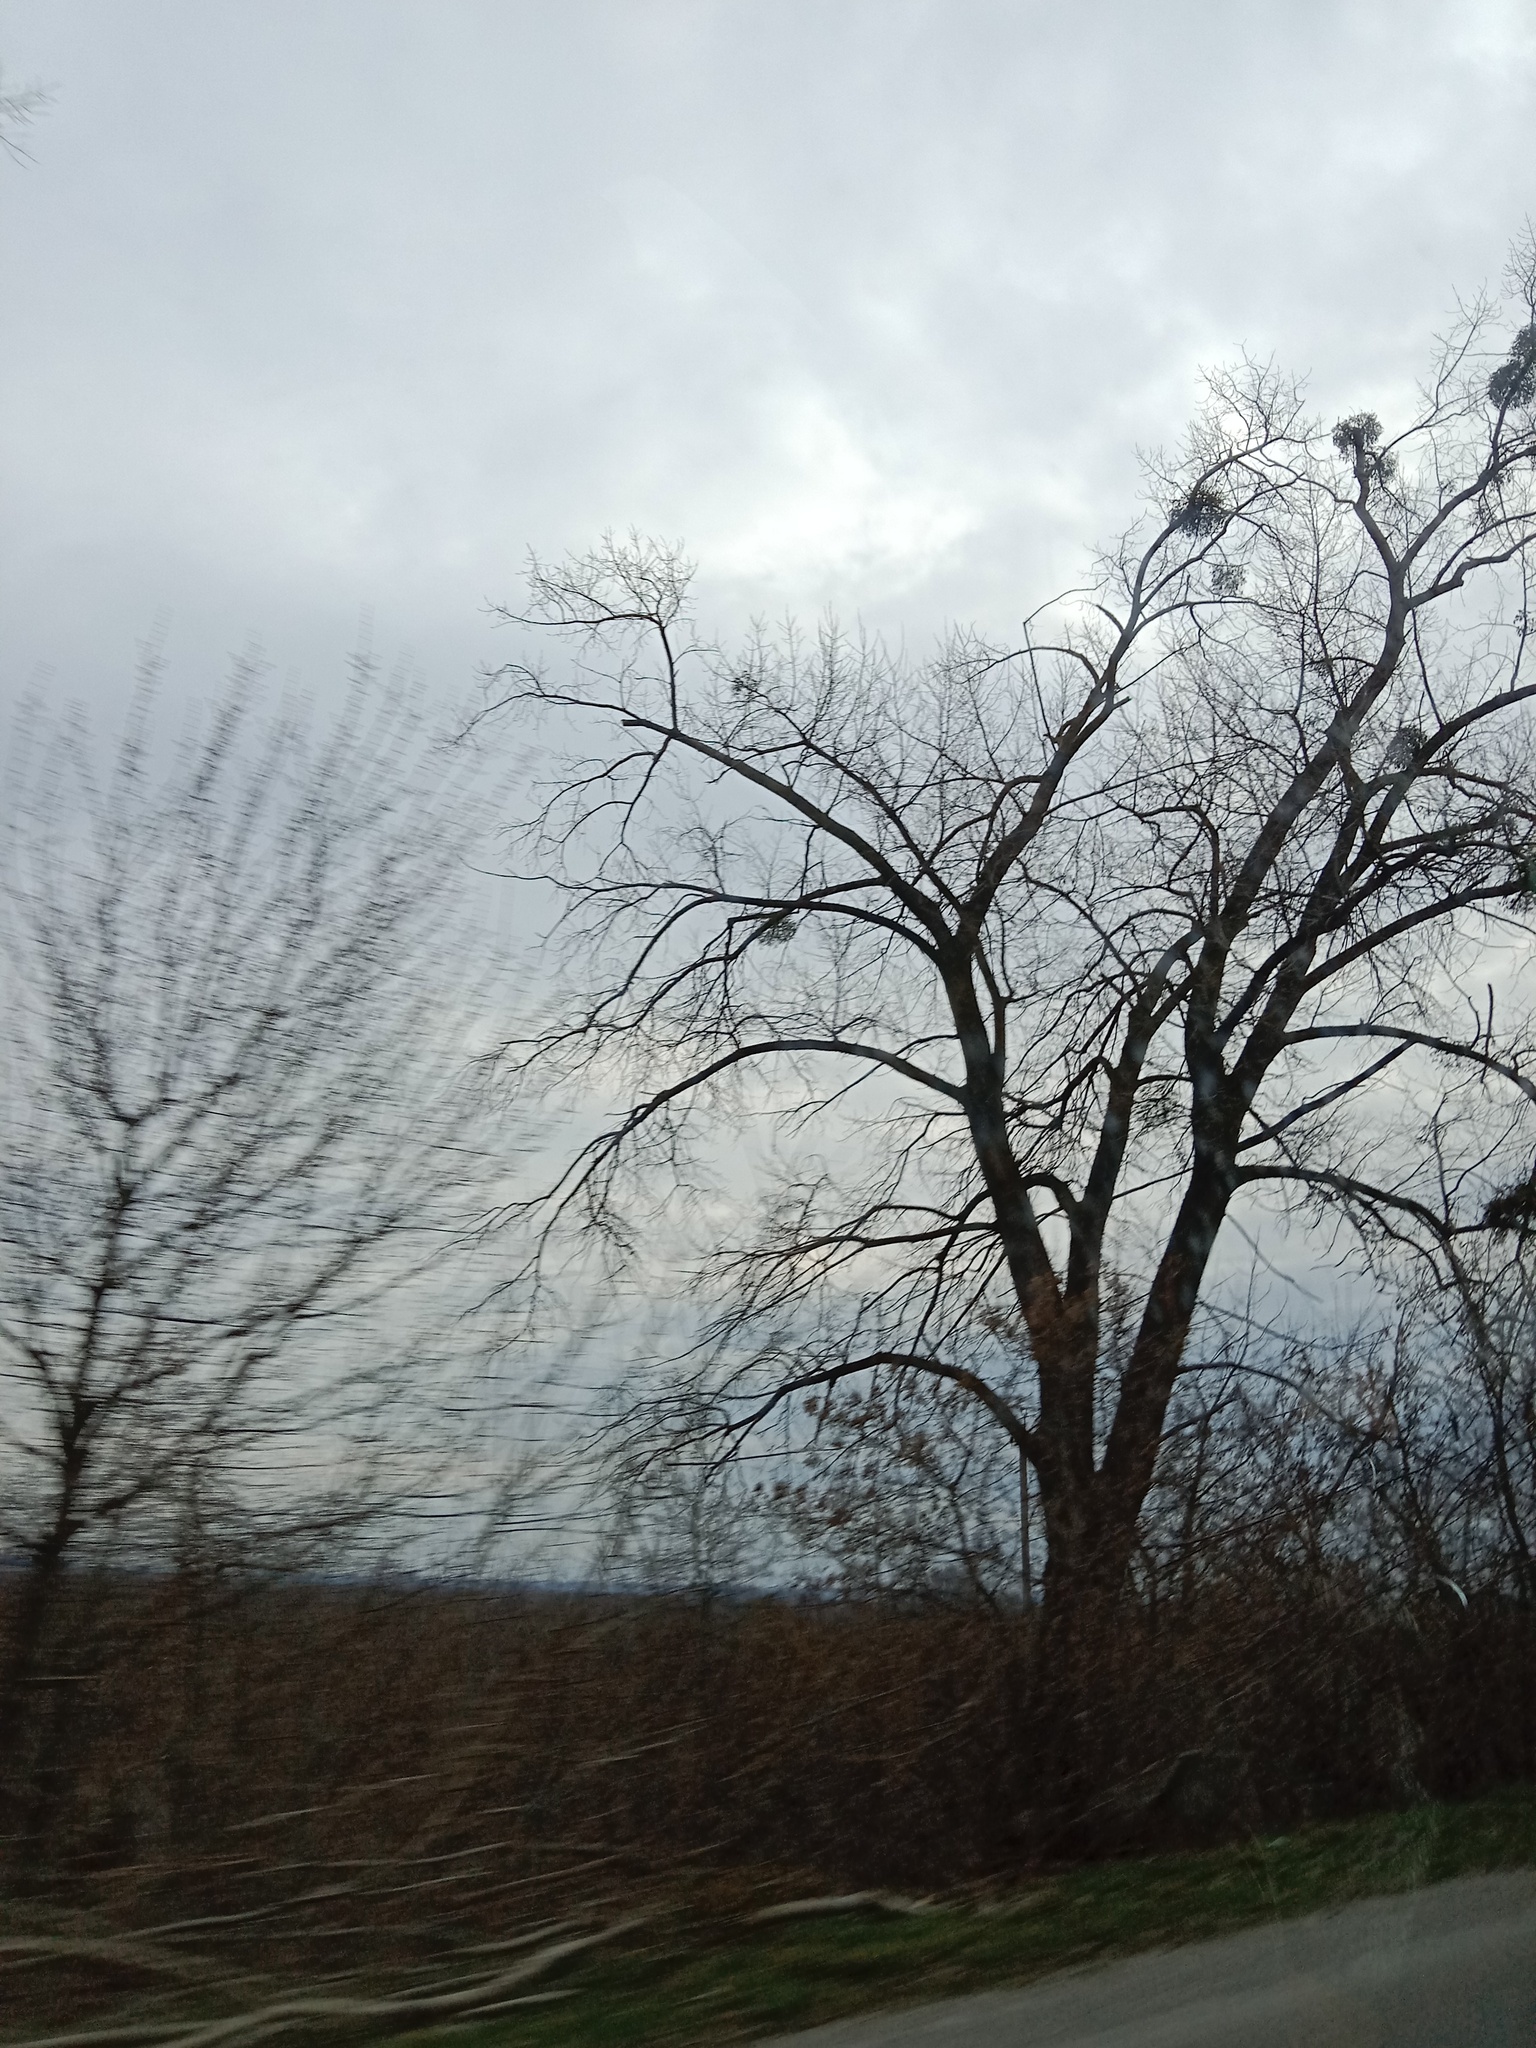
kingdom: Plantae
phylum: Tracheophyta
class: Magnoliopsida
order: Santalales
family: Viscaceae
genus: Viscum
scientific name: Viscum album
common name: Mistletoe
